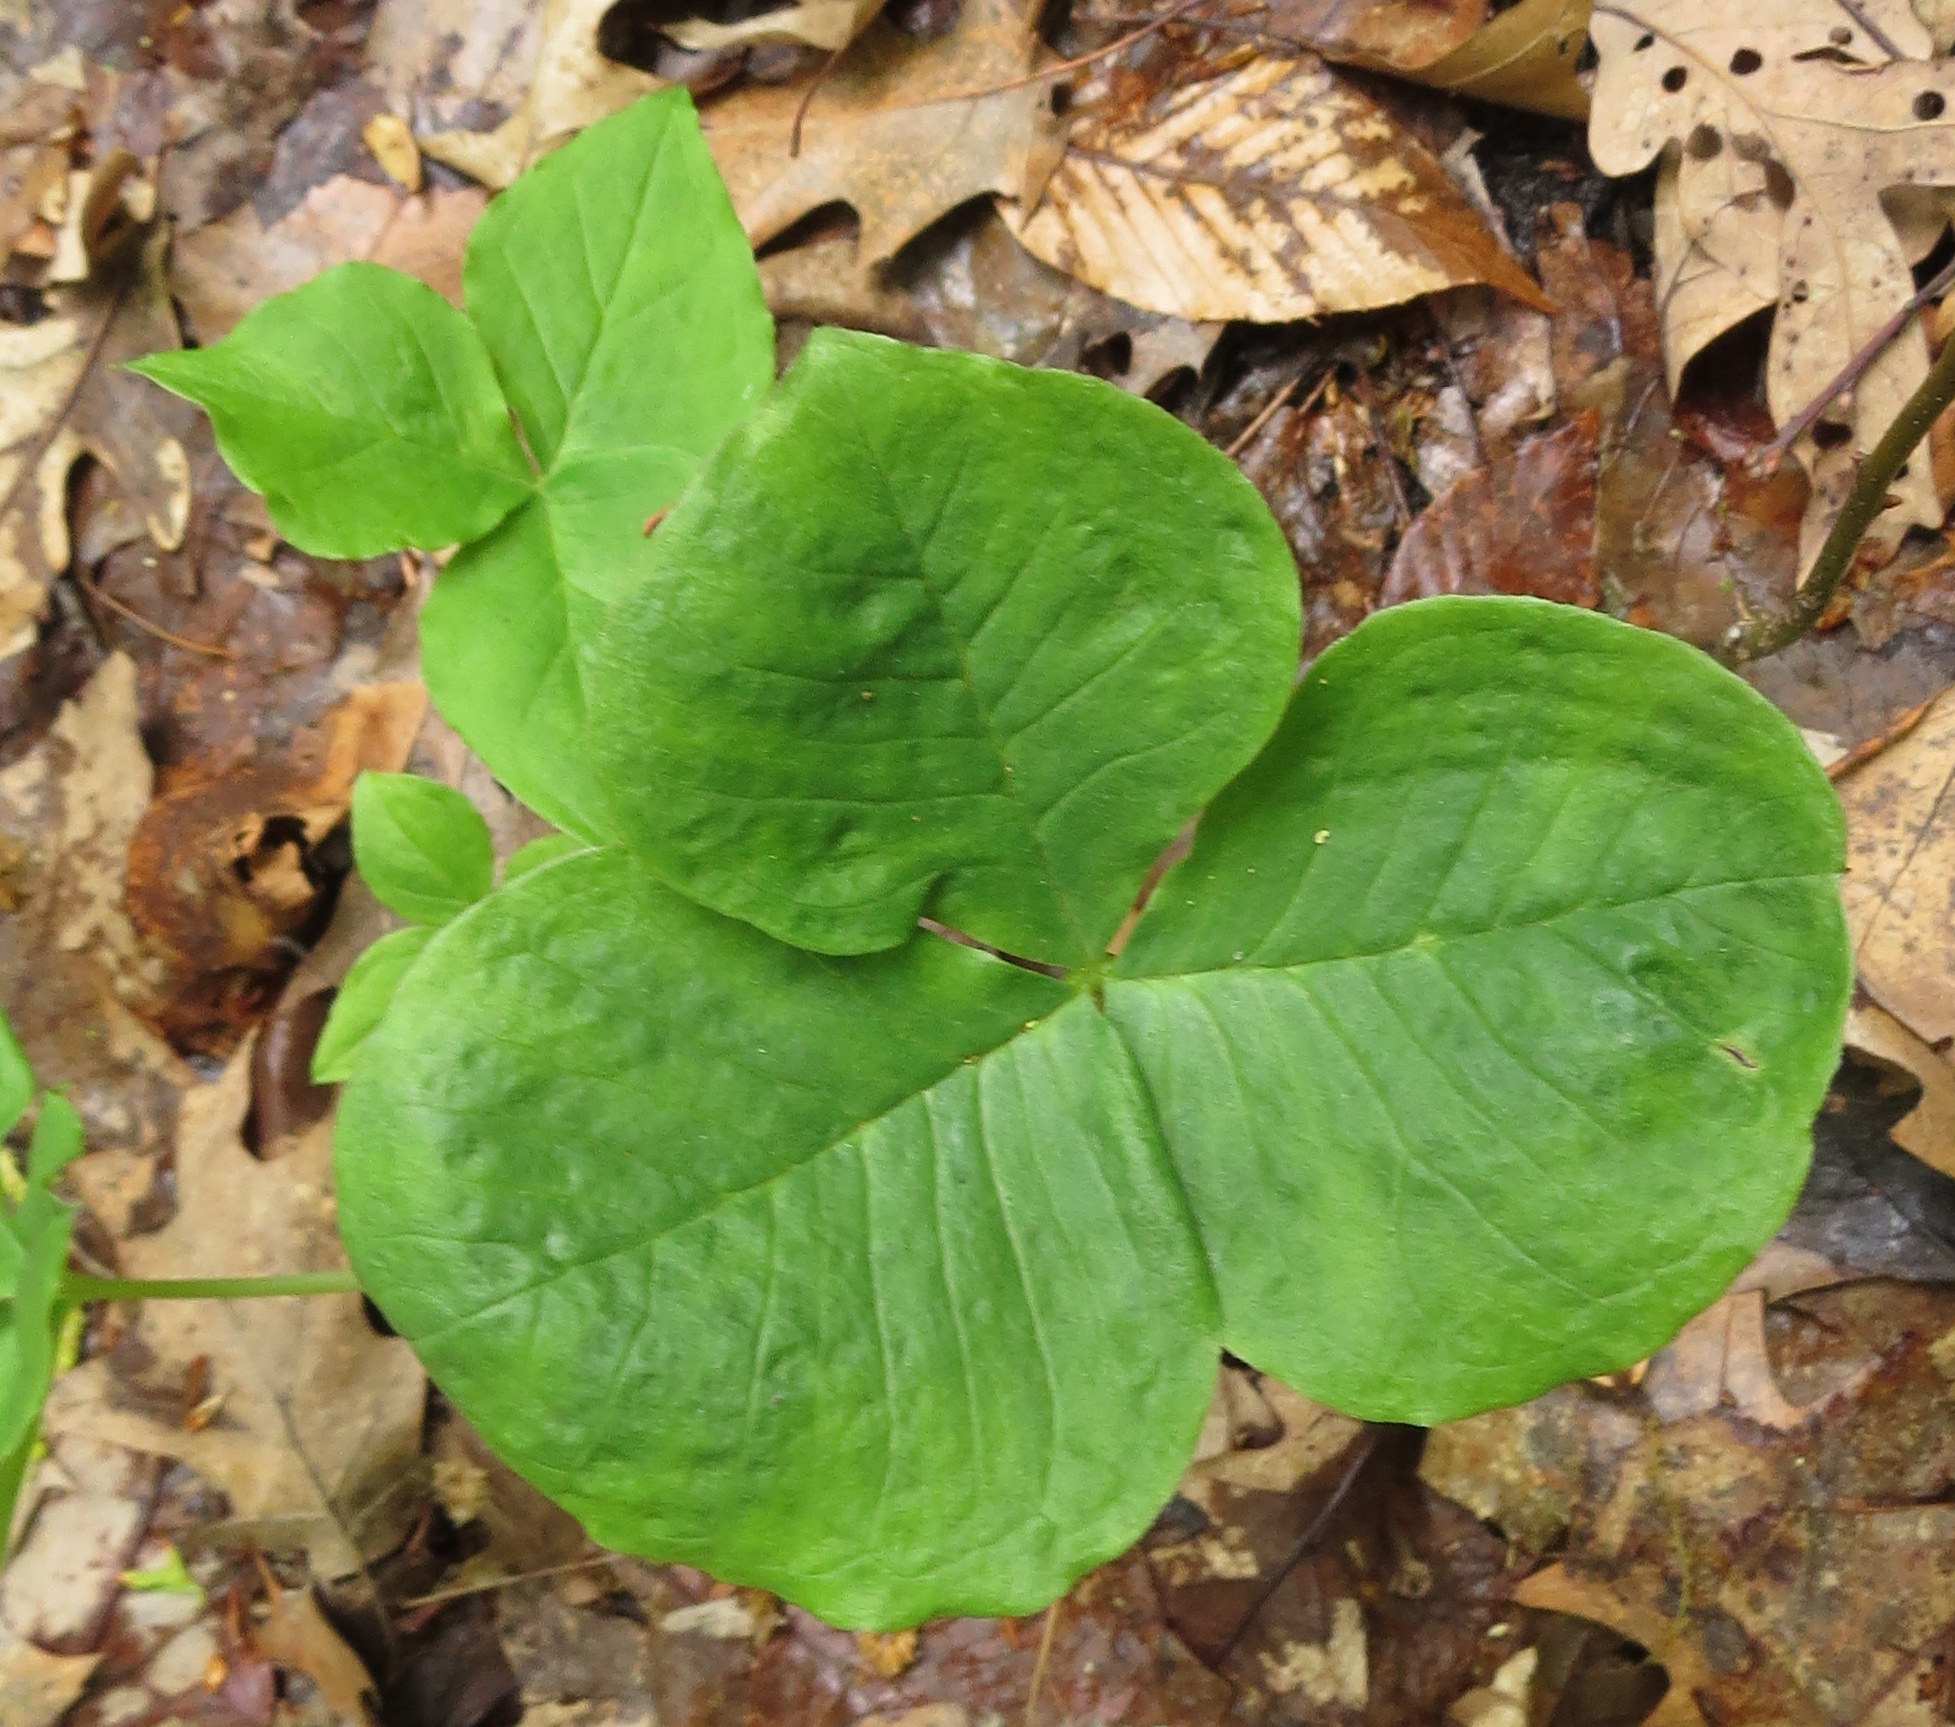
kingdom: Plantae
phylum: Tracheophyta
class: Liliopsida
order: Alismatales
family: Araceae
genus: Arisaema
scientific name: Arisaema triphyllum
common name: Jack-in-the-pulpit
